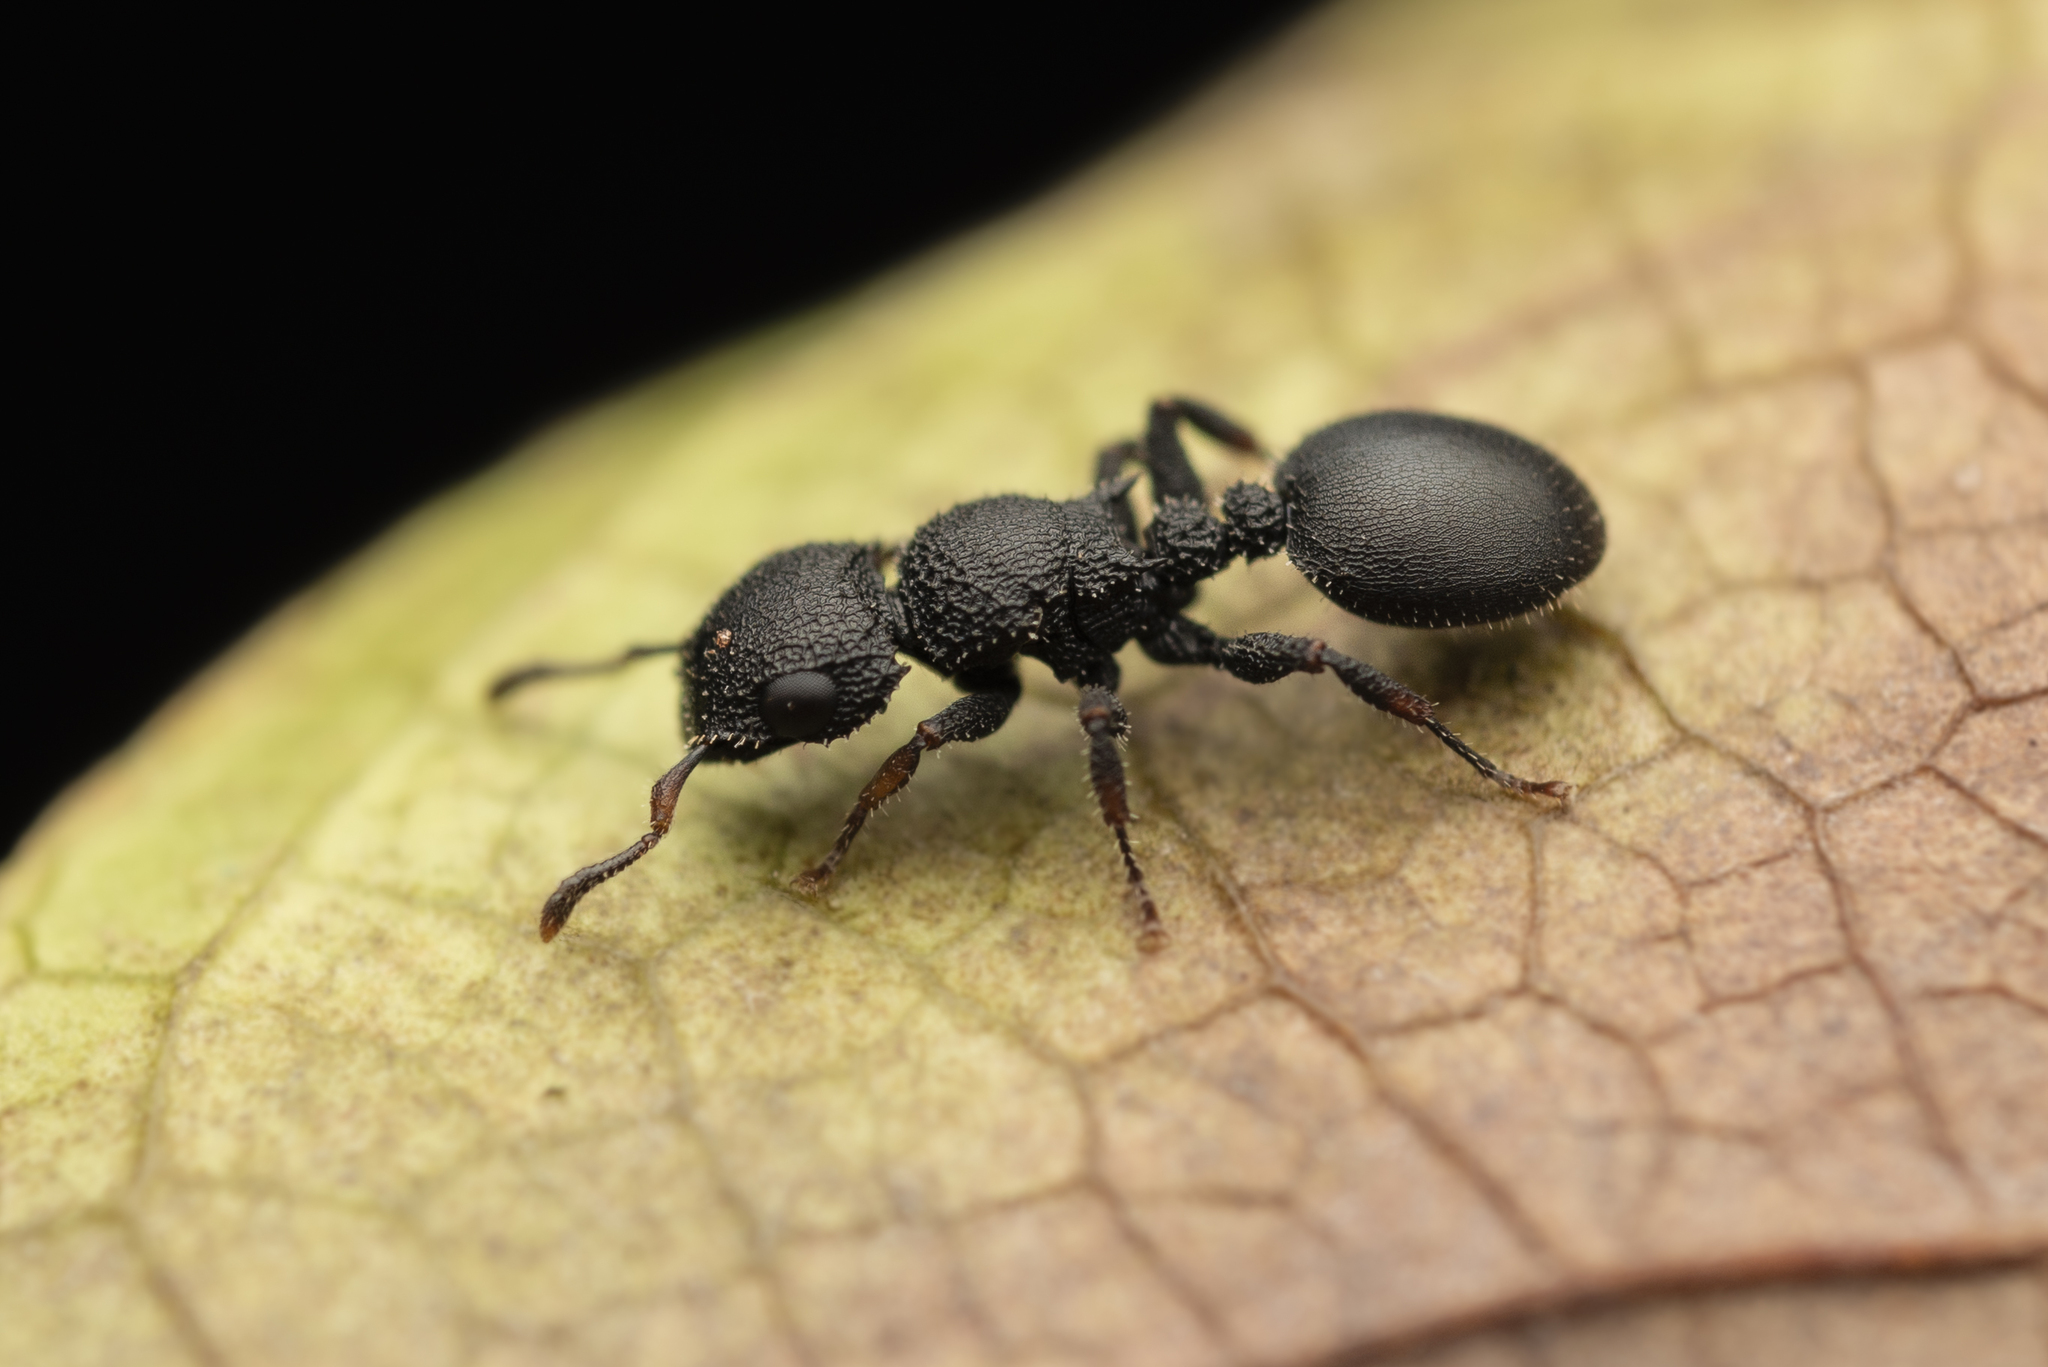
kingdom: Animalia
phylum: Arthropoda
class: Insecta
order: Hymenoptera
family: Formicidae
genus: Cataulacus
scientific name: Cataulacus granulatus
